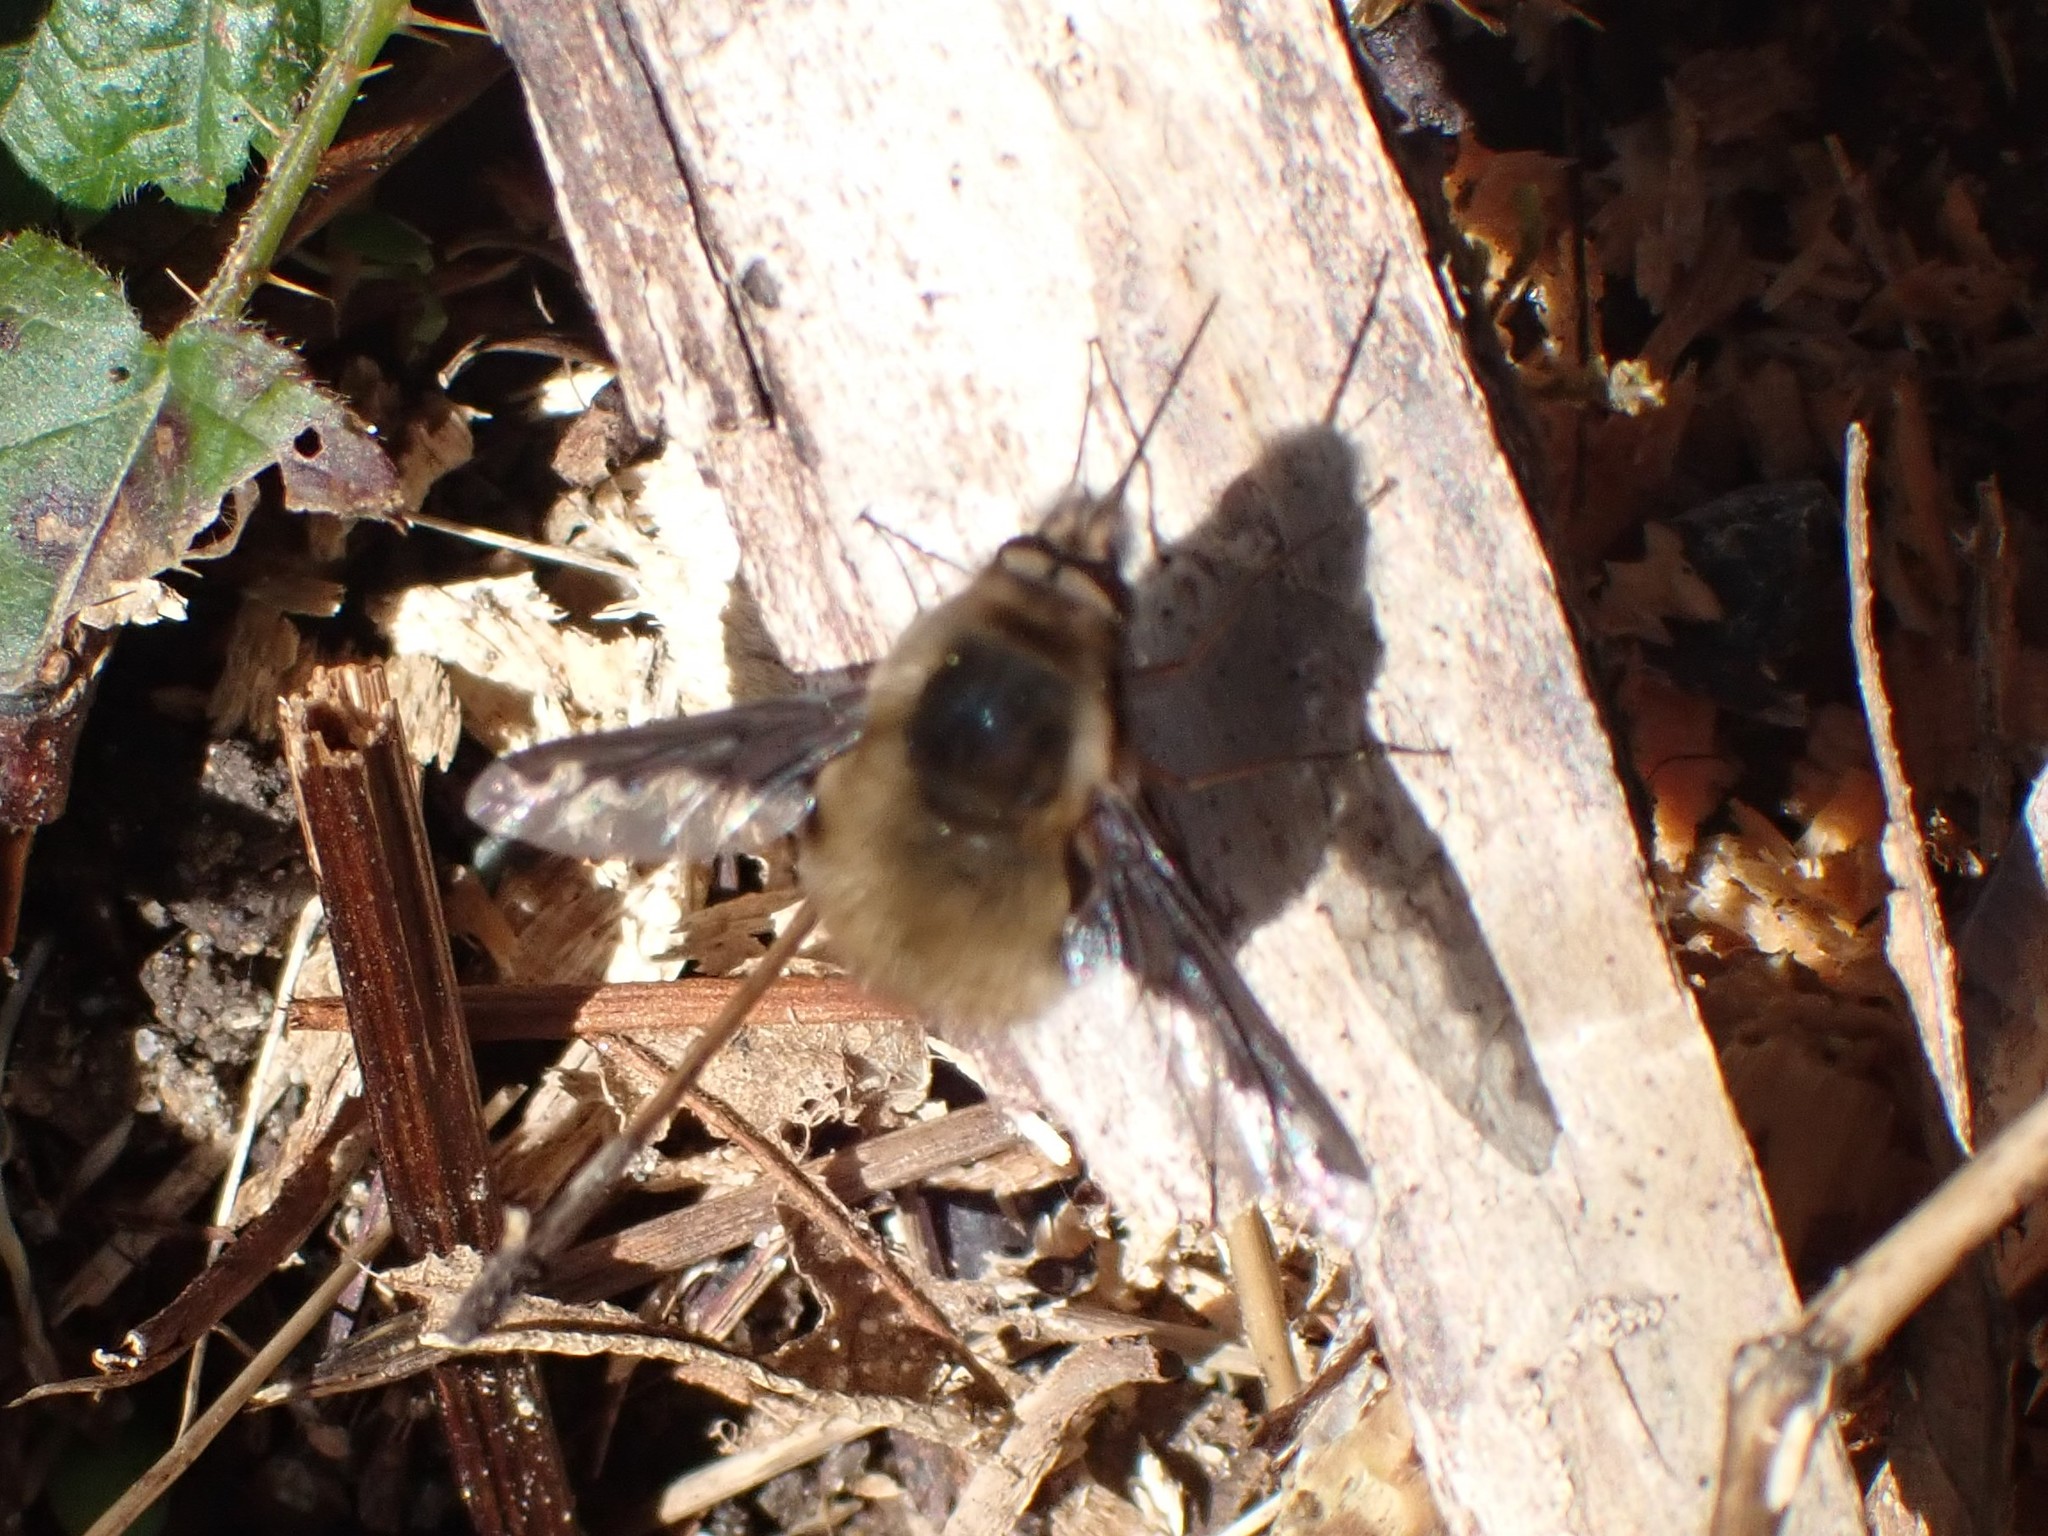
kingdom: Animalia
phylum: Arthropoda
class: Insecta
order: Diptera
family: Bombyliidae
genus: Bombylius
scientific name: Bombylius major
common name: Bee fly
